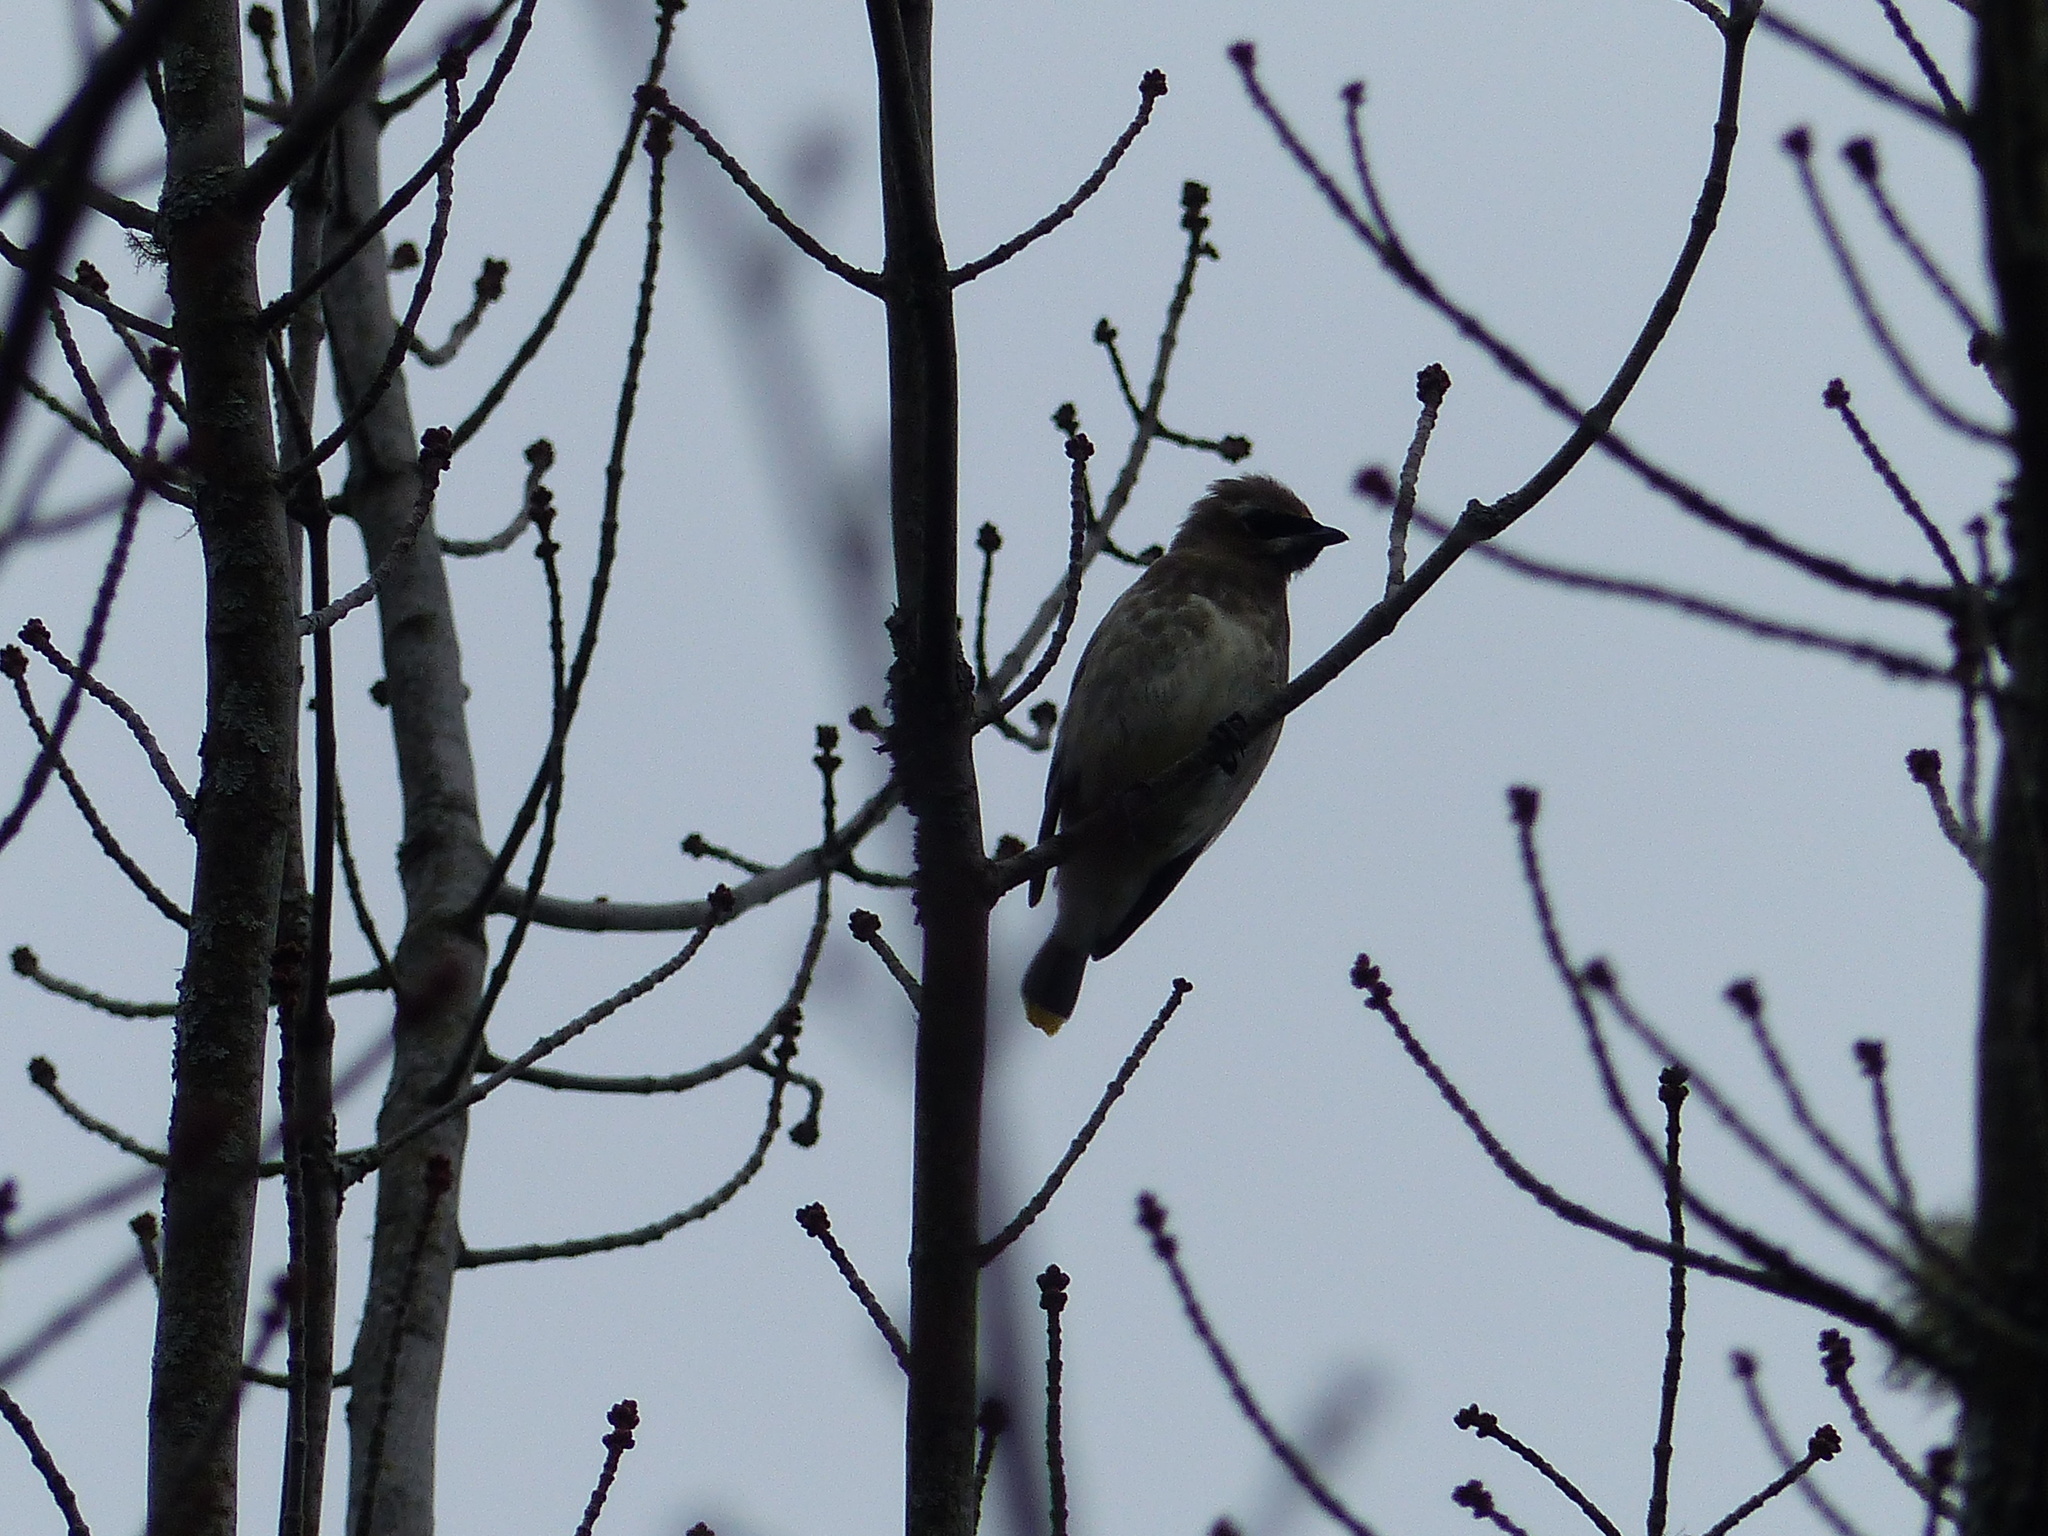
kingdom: Animalia
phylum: Chordata
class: Aves
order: Passeriformes
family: Bombycillidae
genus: Bombycilla
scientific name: Bombycilla cedrorum
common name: Cedar waxwing
